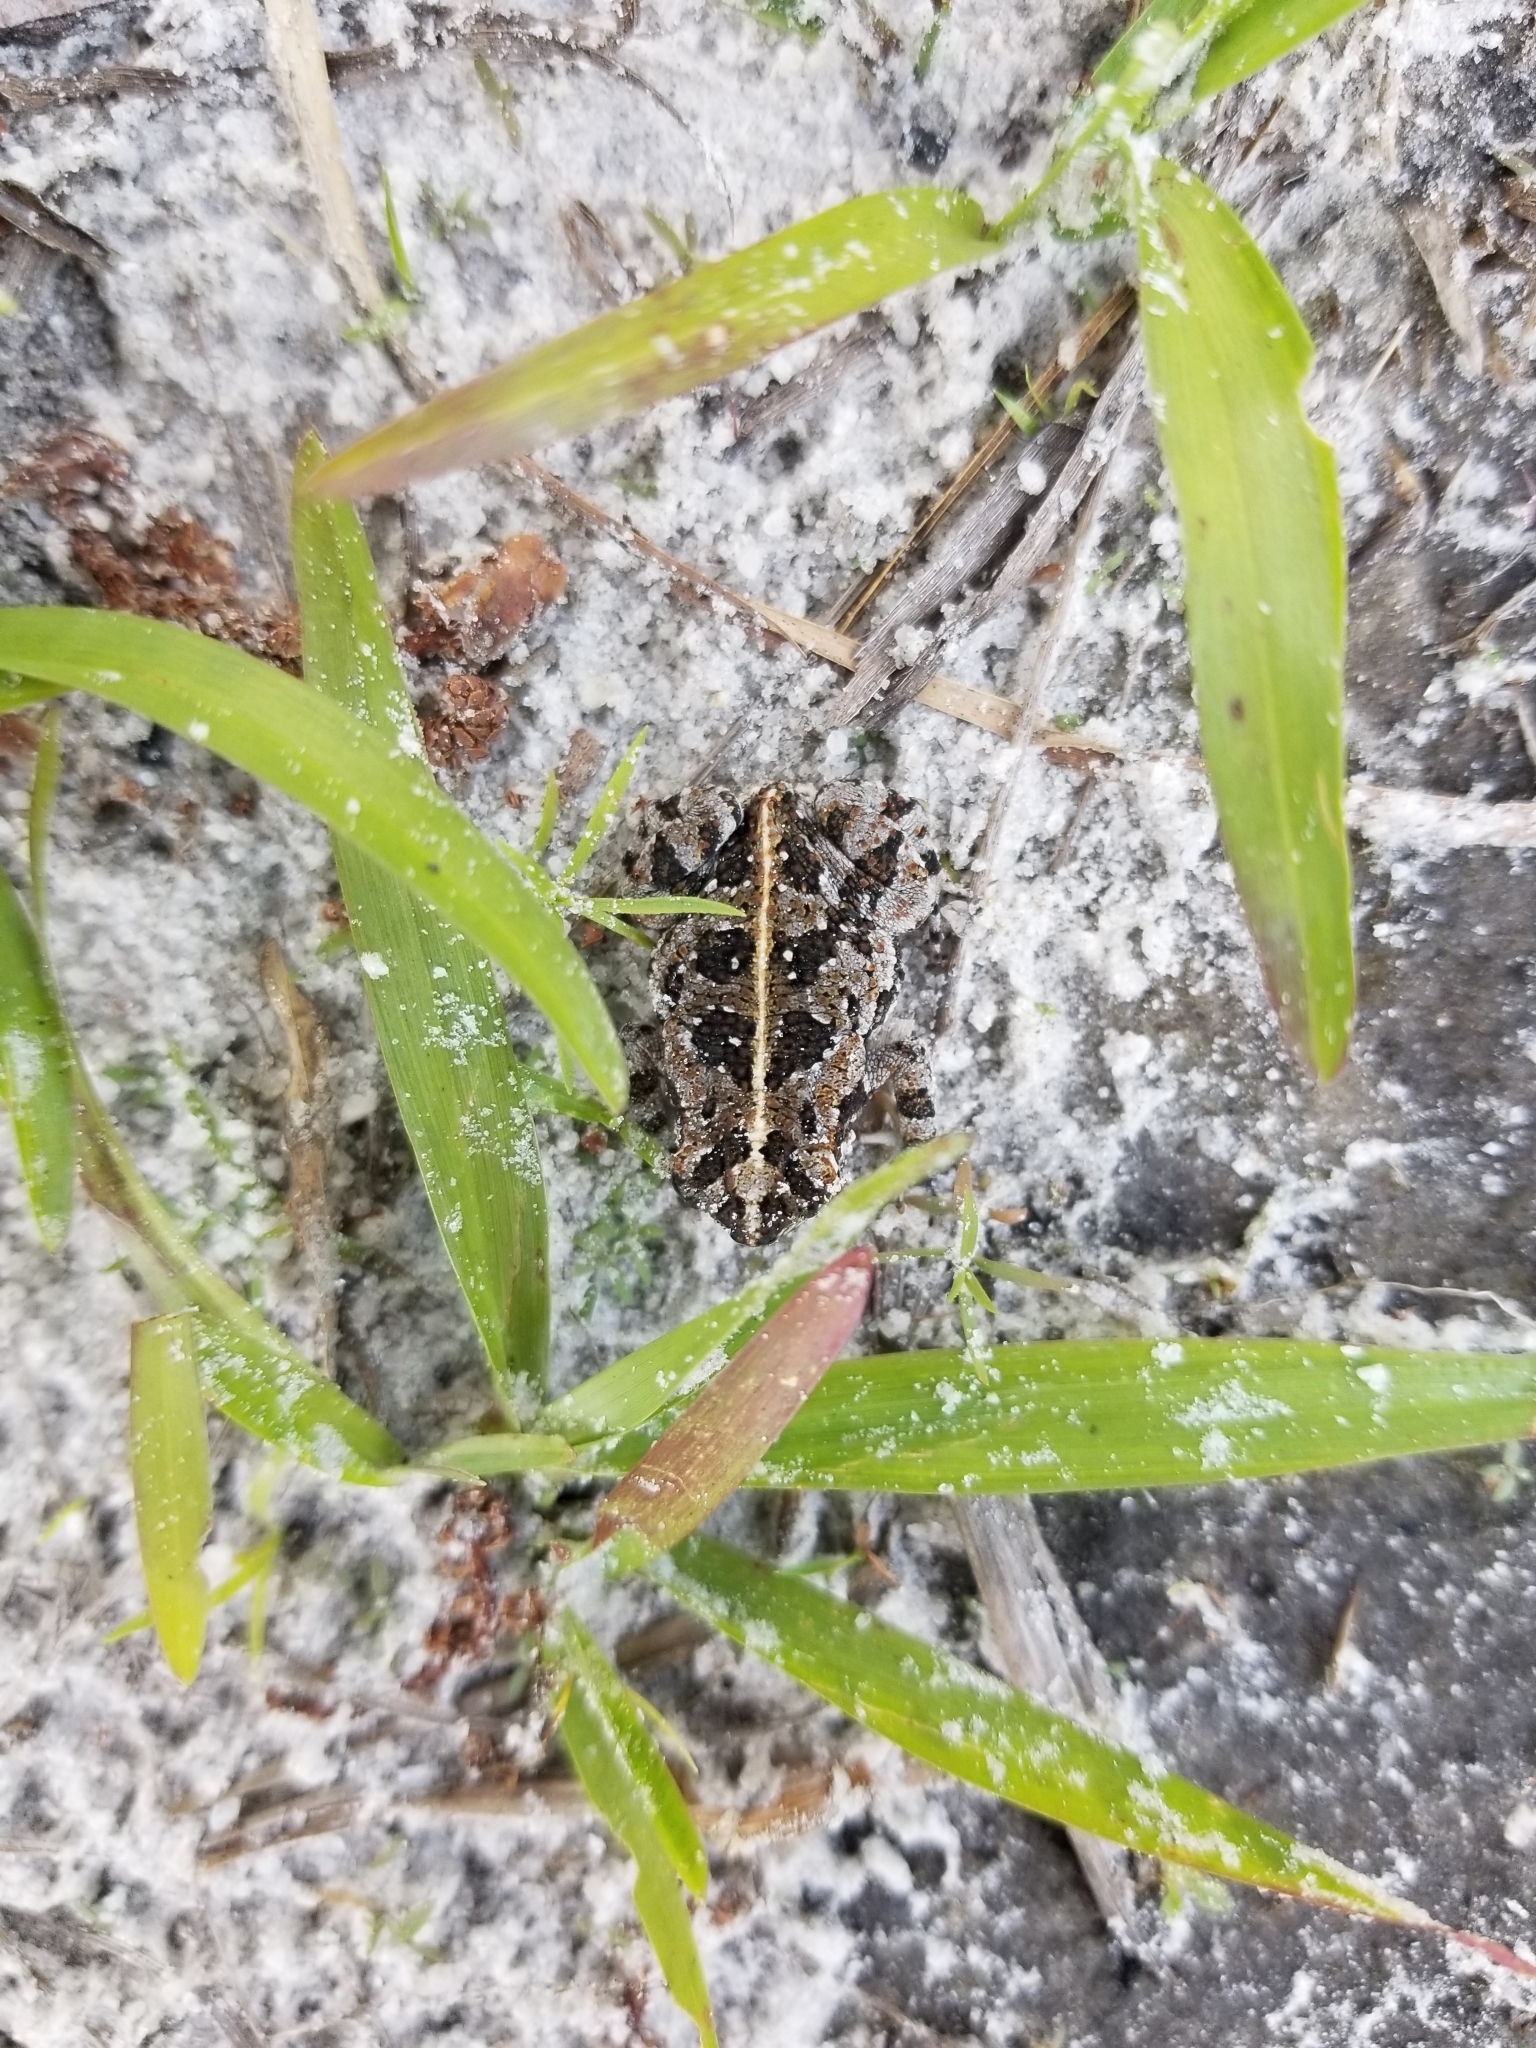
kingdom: Animalia
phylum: Chordata
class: Amphibia
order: Anura
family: Bufonidae
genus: Anaxyrus
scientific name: Anaxyrus quercicus
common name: Oak toad
